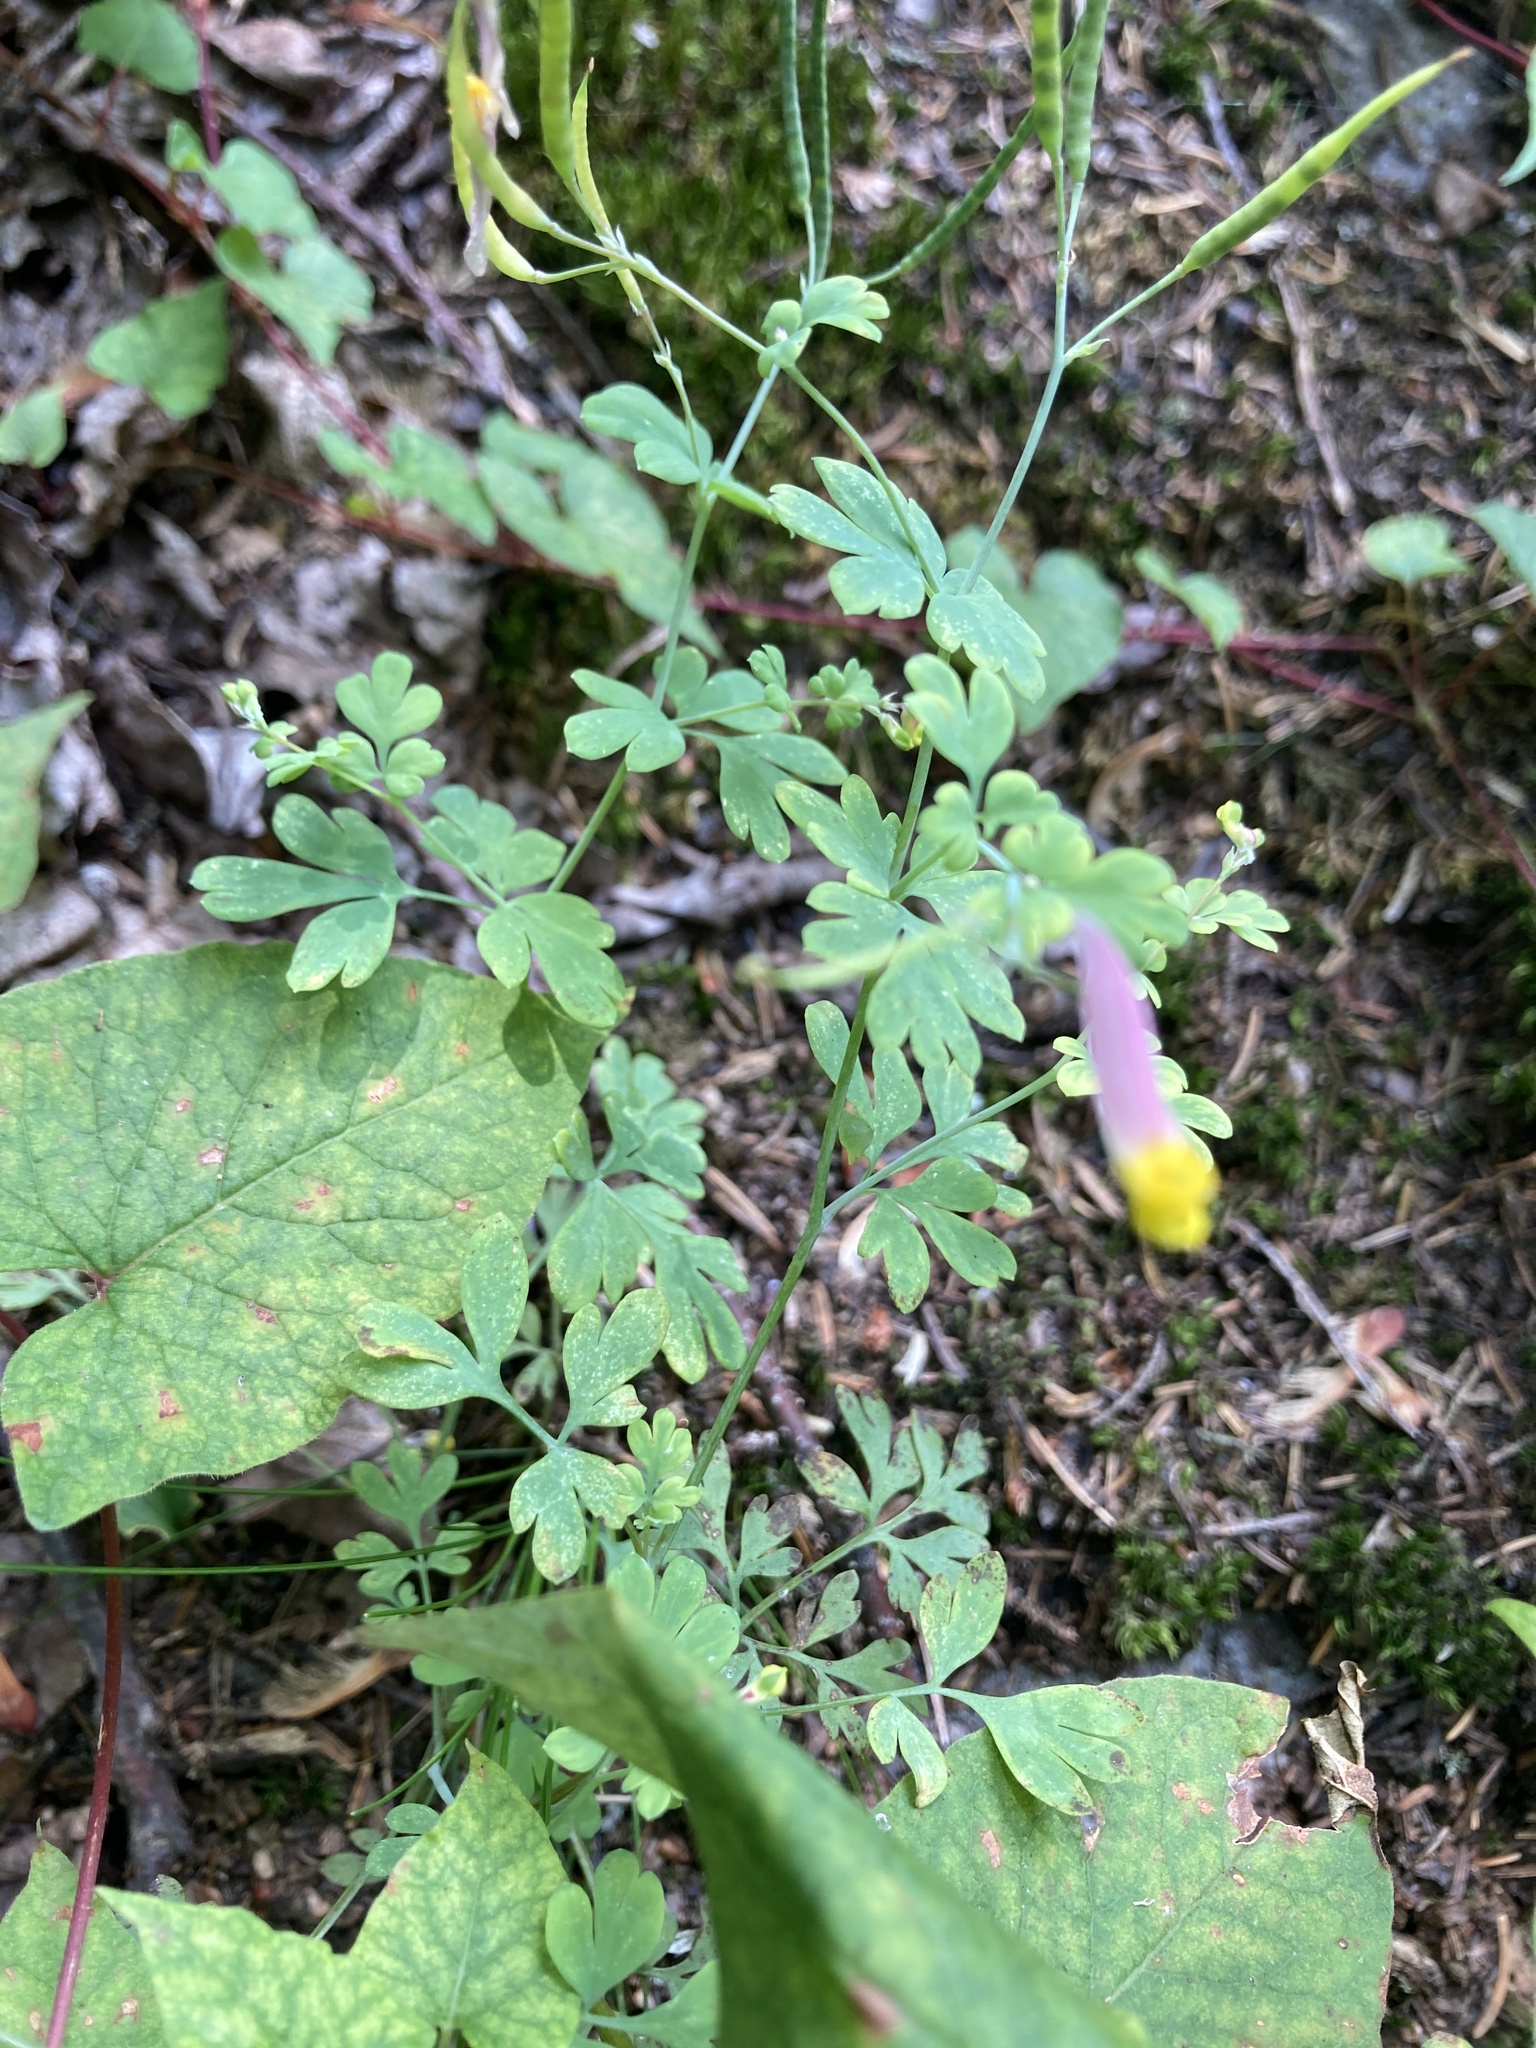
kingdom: Plantae
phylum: Tracheophyta
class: Magnoliopsida
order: Ranunculales
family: Papaveraceae
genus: Capnoides
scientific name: Capnoides sempervirens
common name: Rock harlequin
